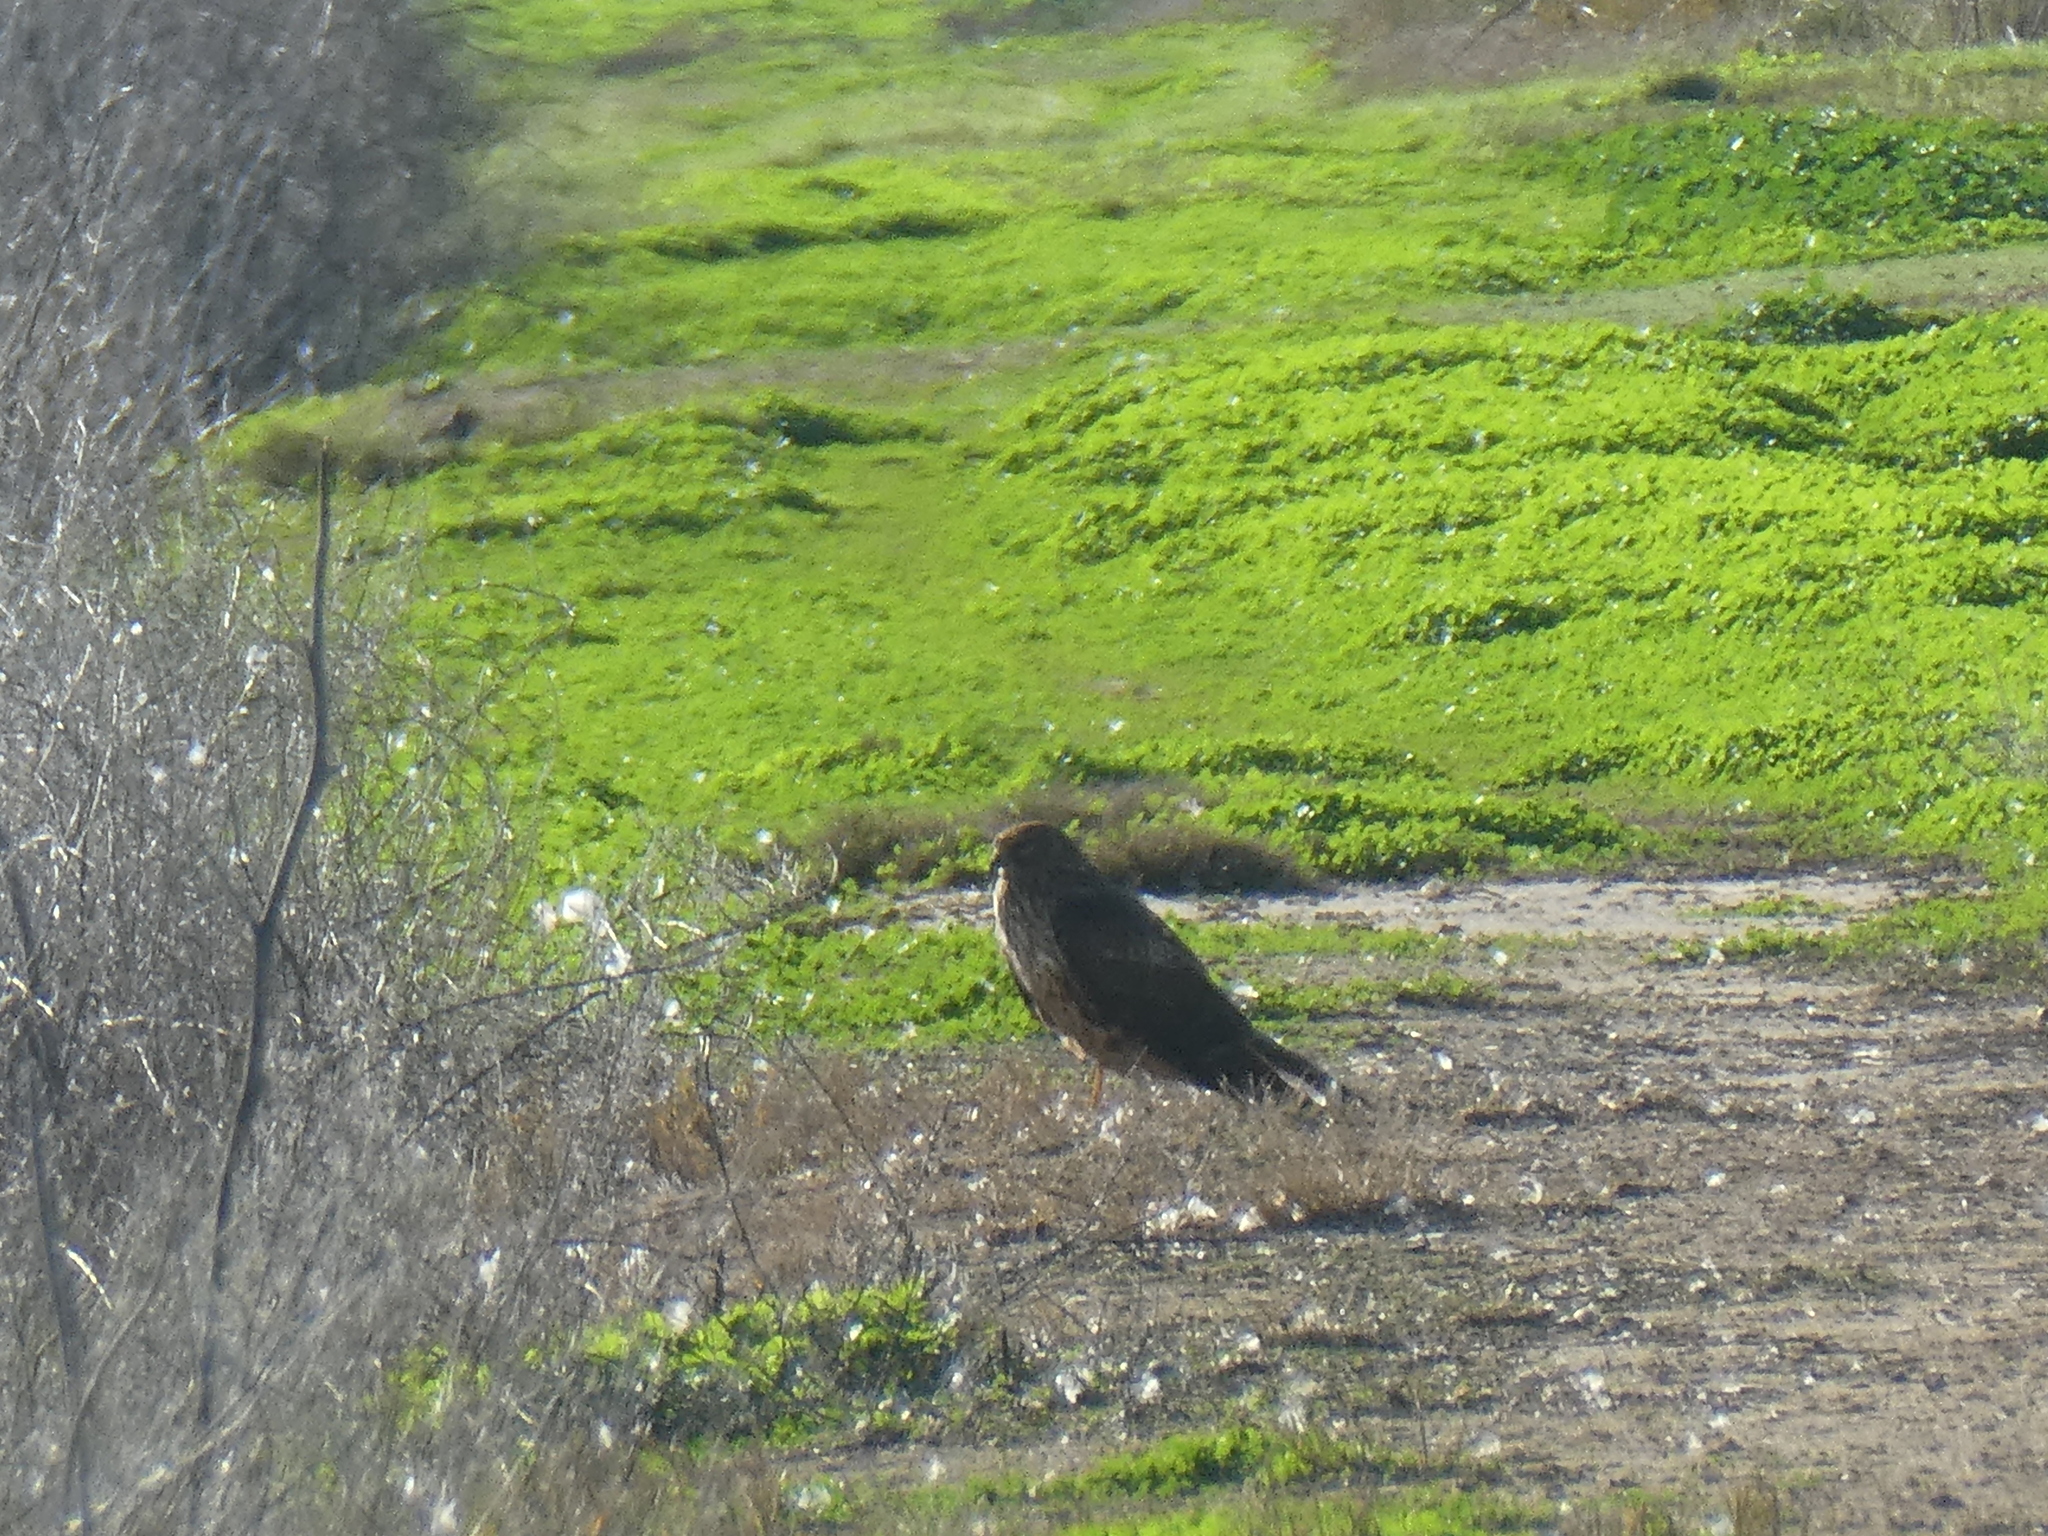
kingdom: Animalia
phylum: Chordata
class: Aves
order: Accipitriformes
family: Accipitridae
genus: Circus
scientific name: Circus cyaneus
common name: Hen harrier
